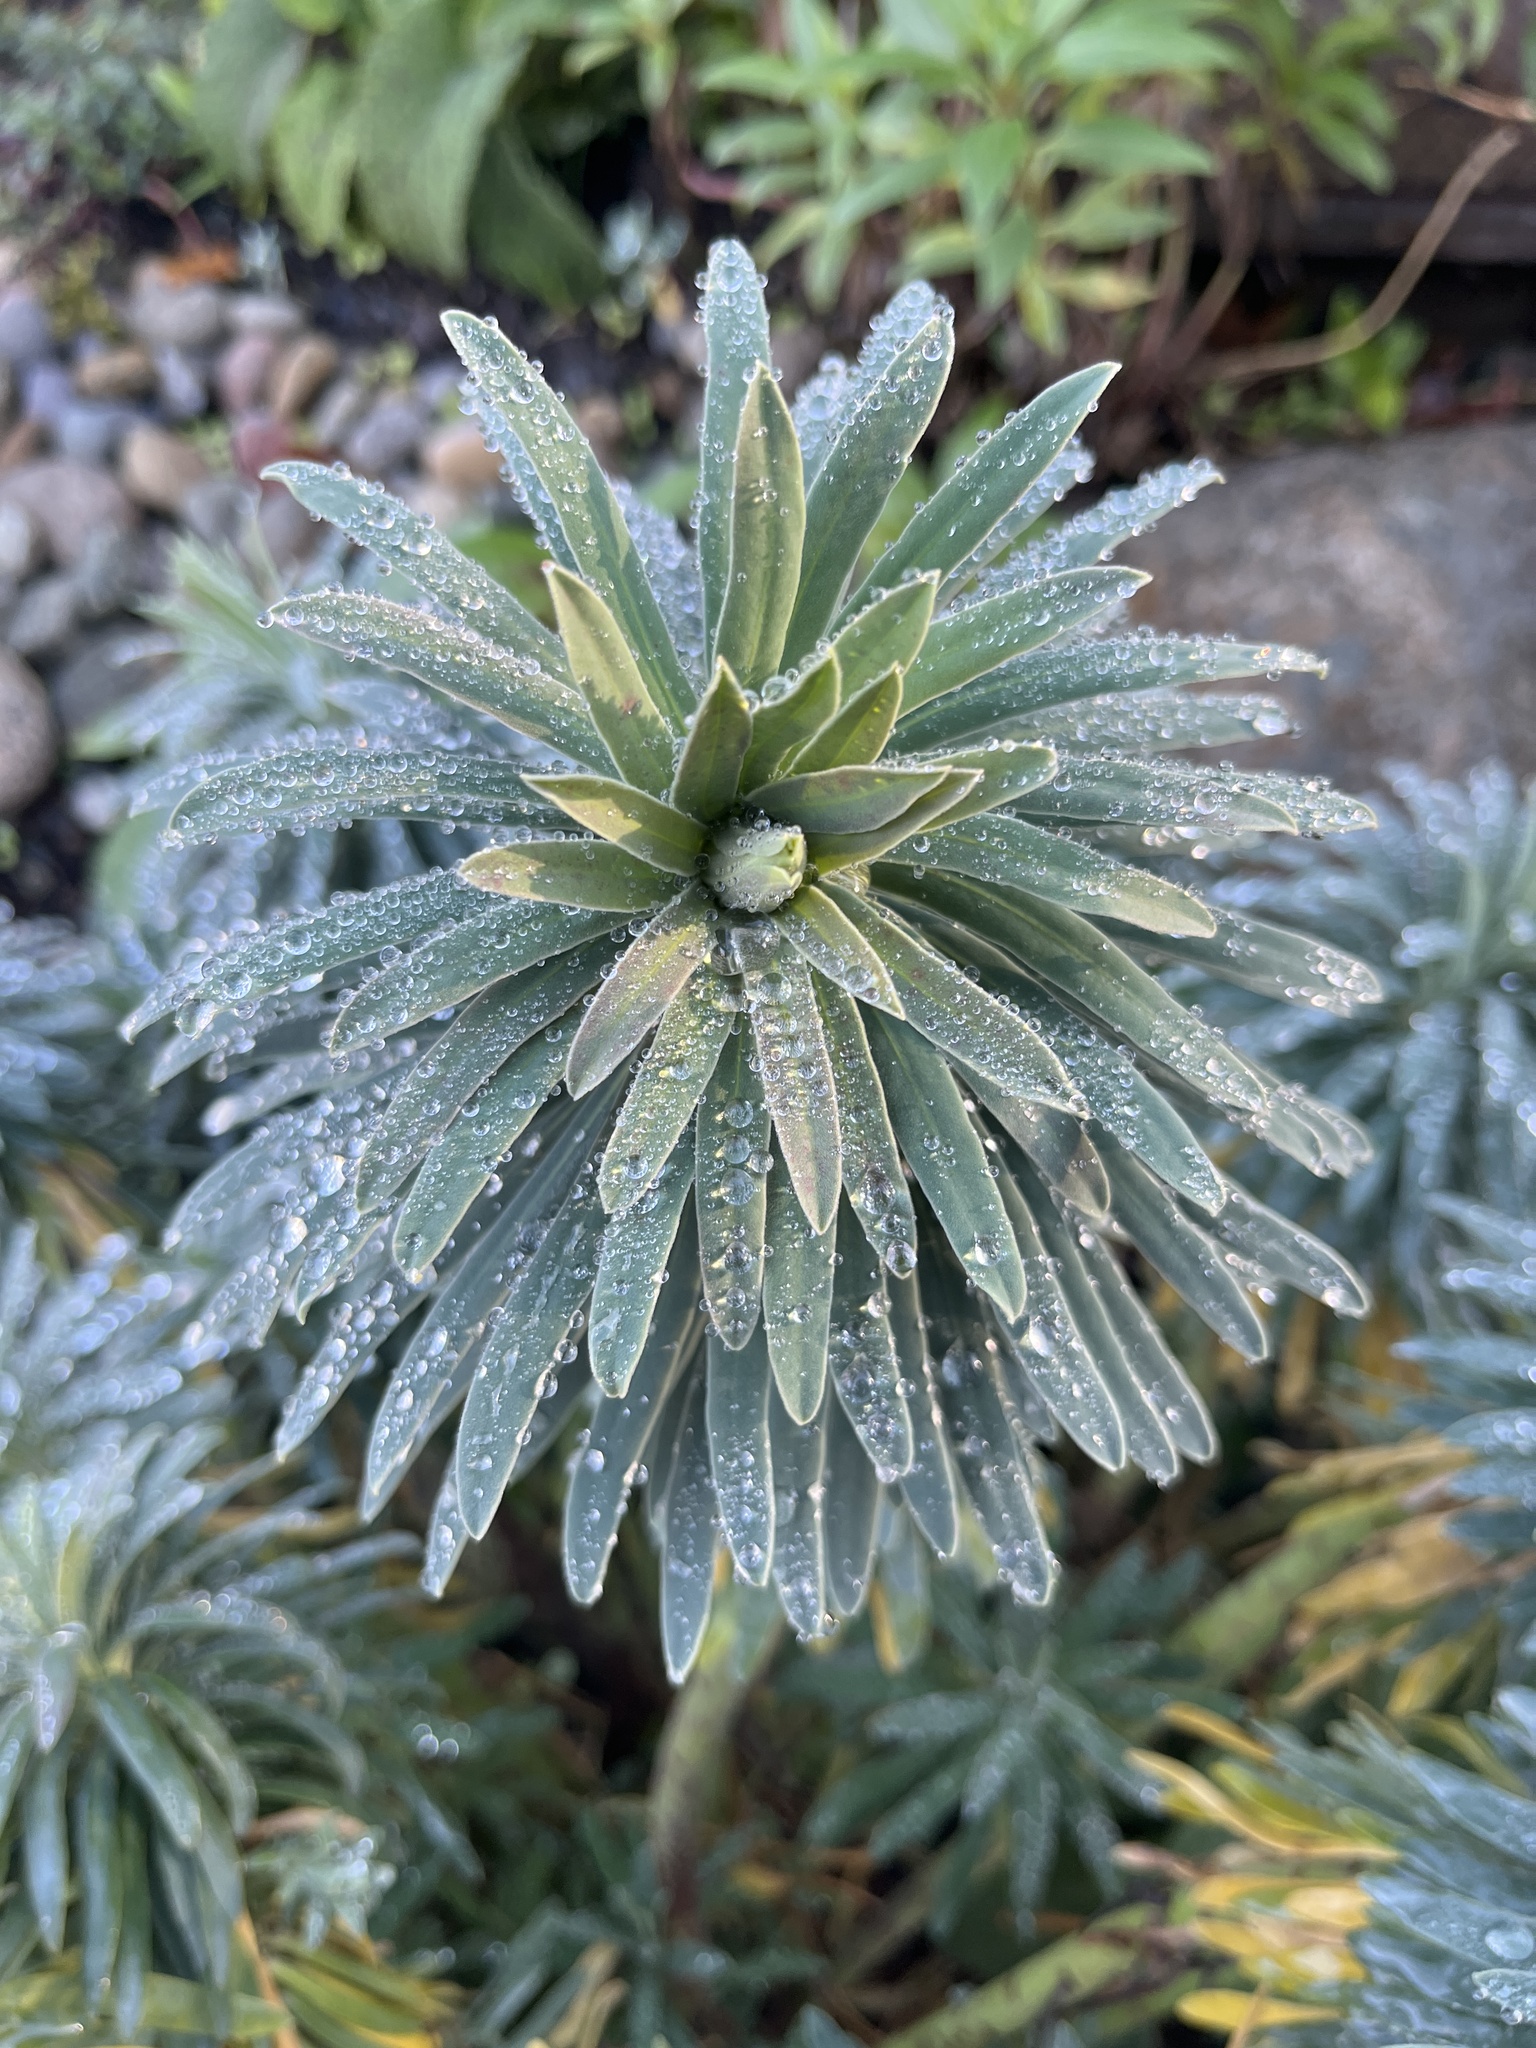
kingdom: Plantae
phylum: Tracheophyta
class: Magnoliopsida
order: Malpighiales
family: Euphorbiaceae
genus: Euphorbia
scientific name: Euphorbia characias
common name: Mediterranean spurge
